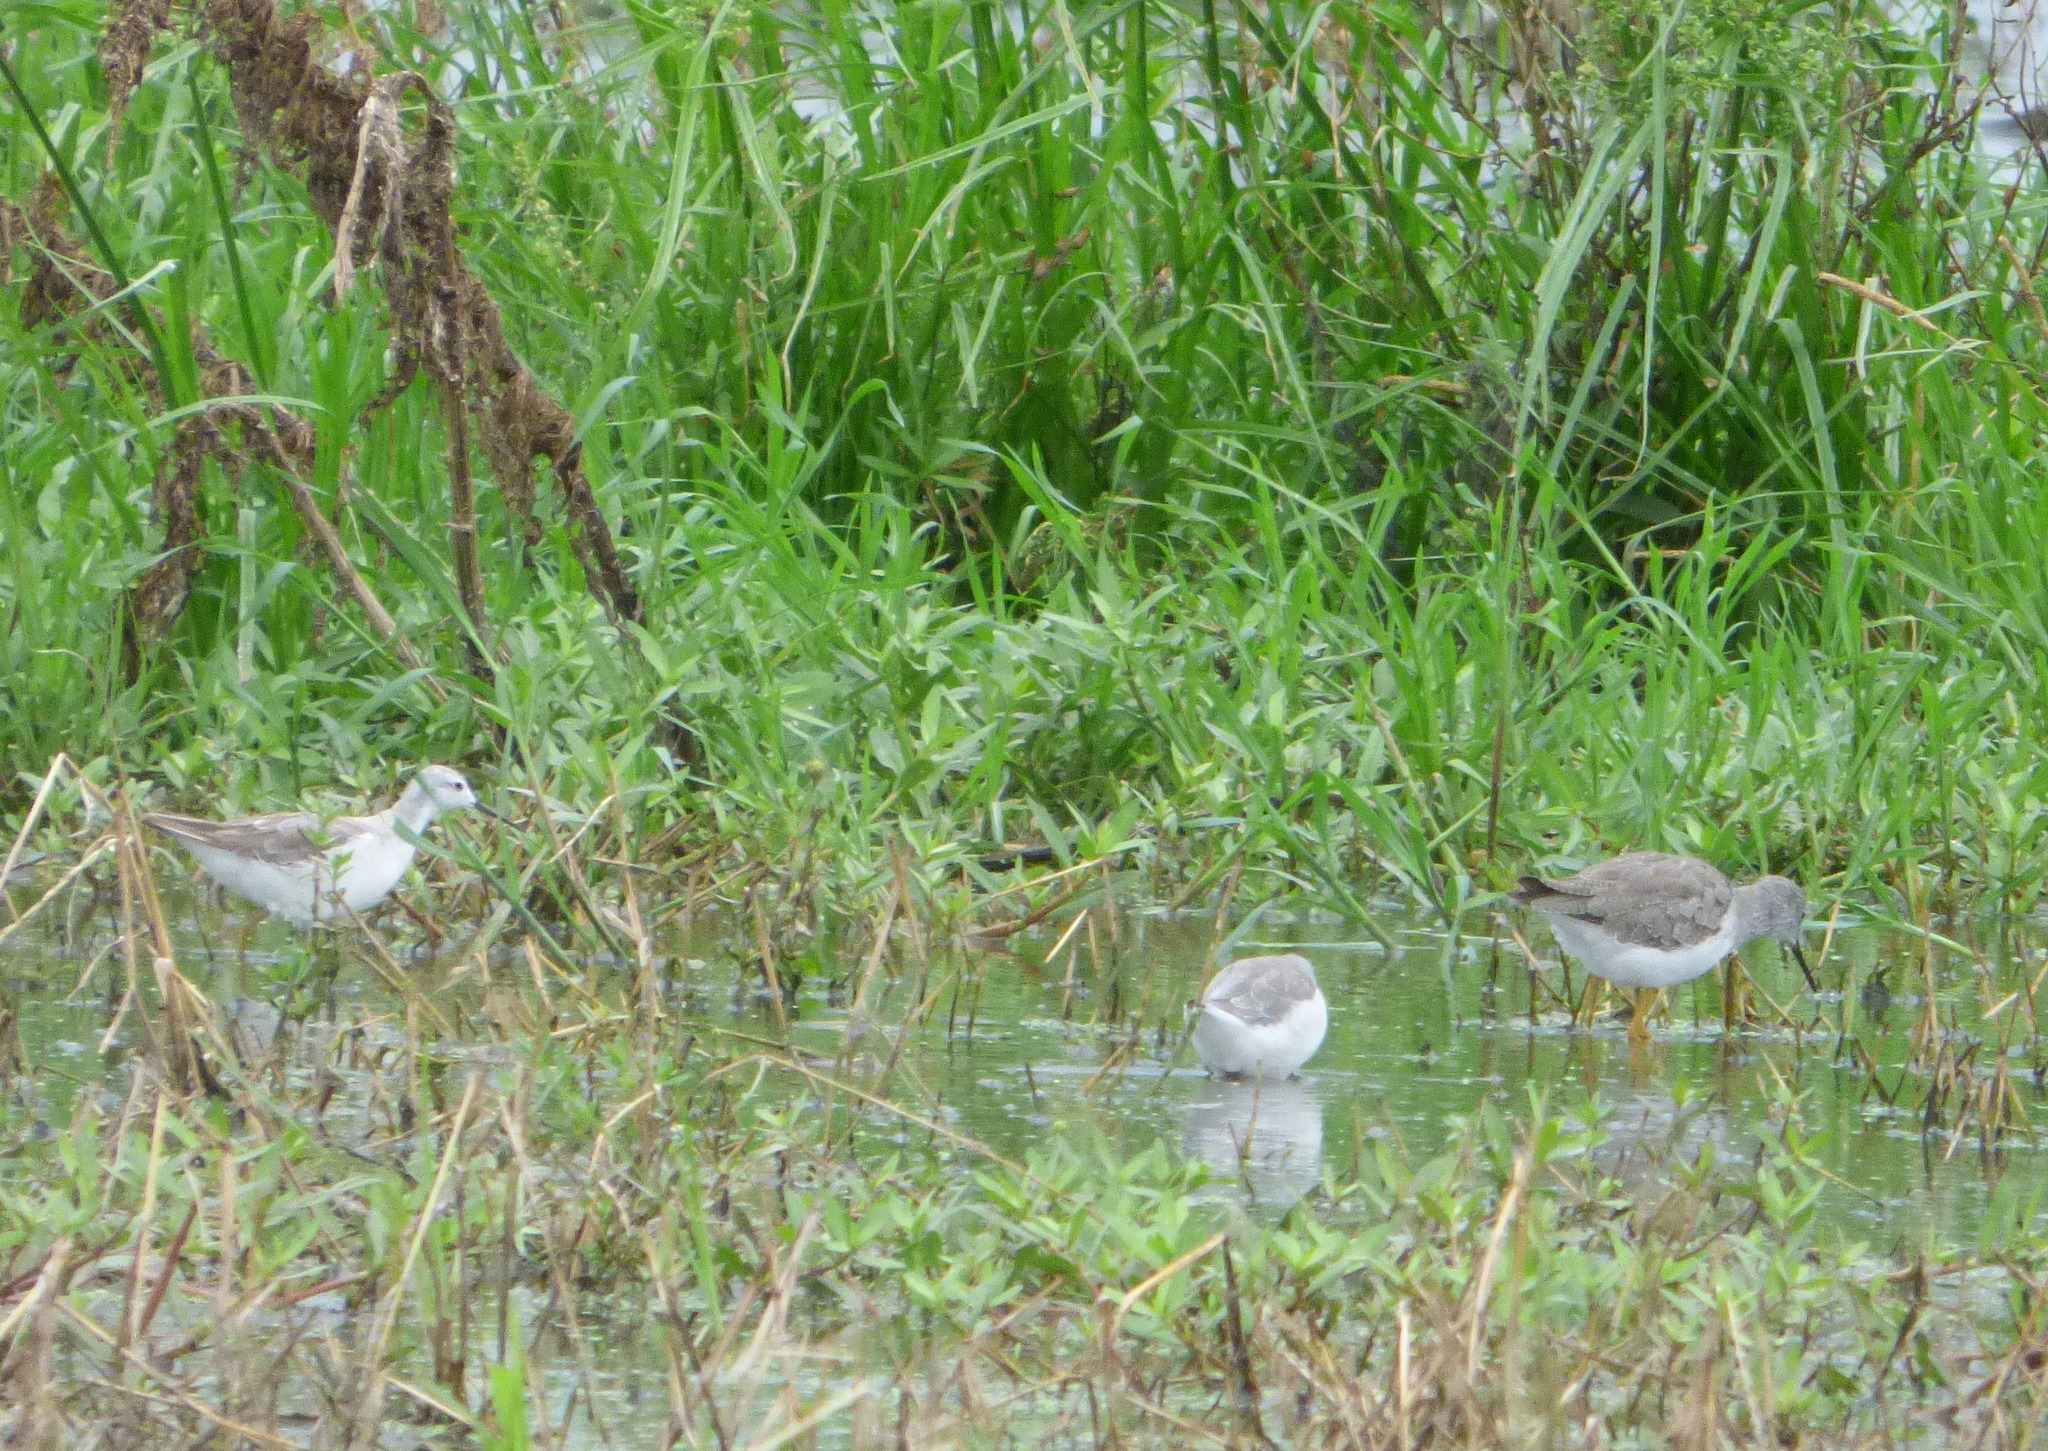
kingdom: Animalia
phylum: Chordata
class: Aves
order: Charadriiformes
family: Scolopacidae
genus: Phalaropus
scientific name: Phalaropus tricolor
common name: Wilson's phalarope
